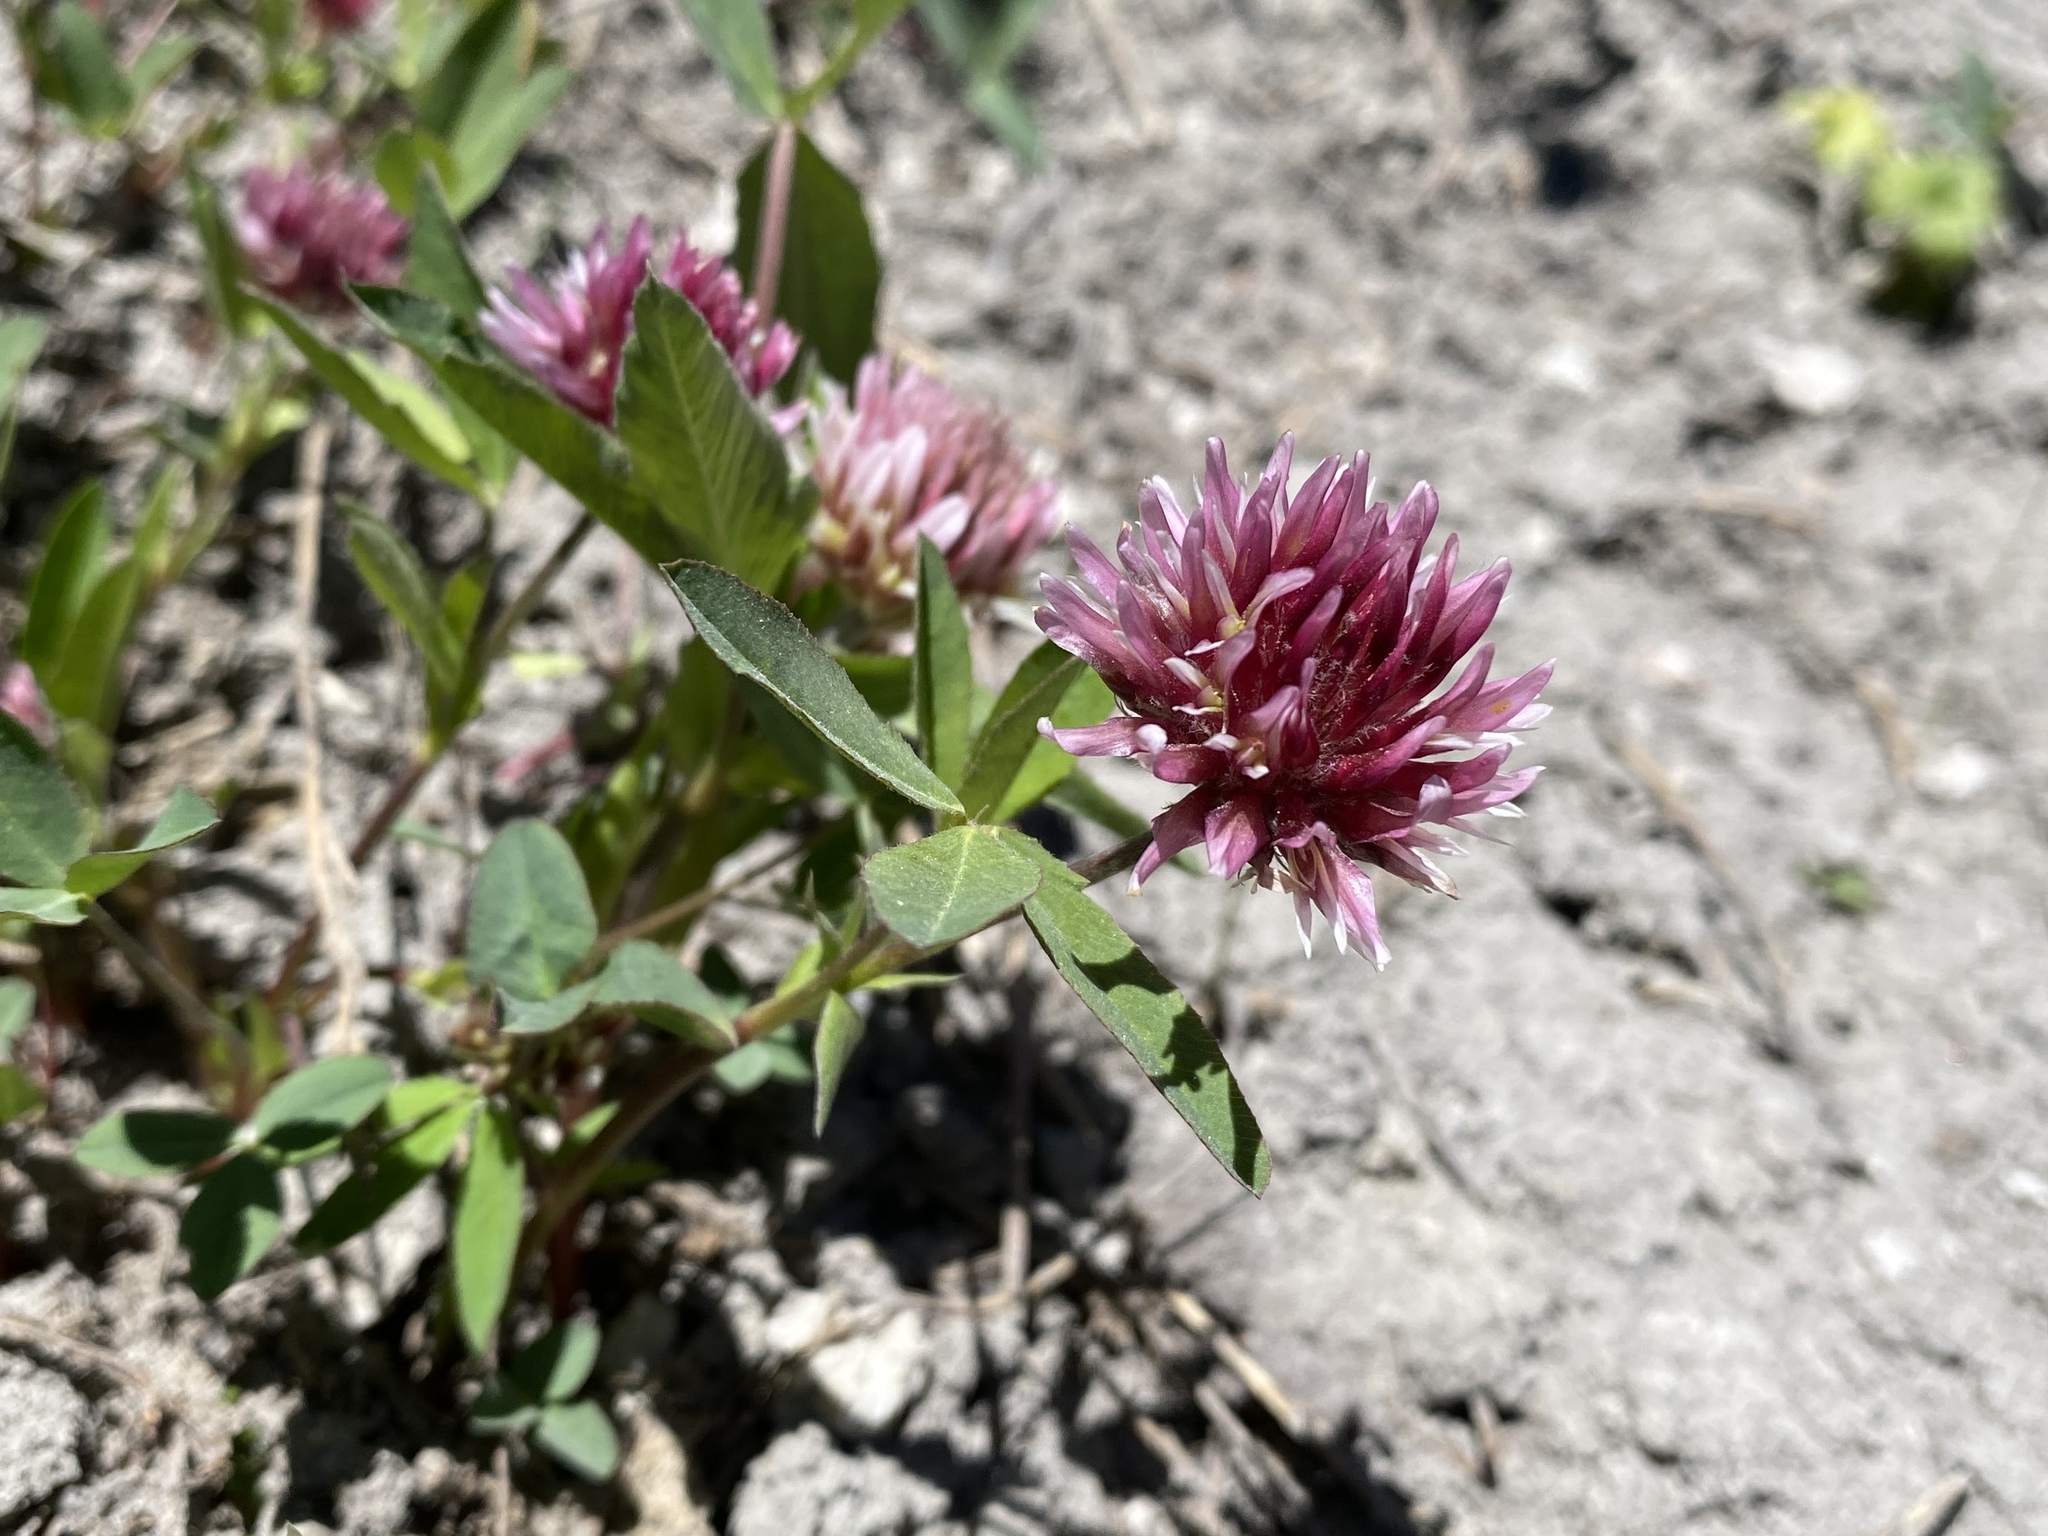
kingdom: Plantae
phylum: Tracheophyta
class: Magnoliopsida
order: Fabales
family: Fabaceae
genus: Trifolium
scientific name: Trifolium longipes
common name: Long-stalk clover
